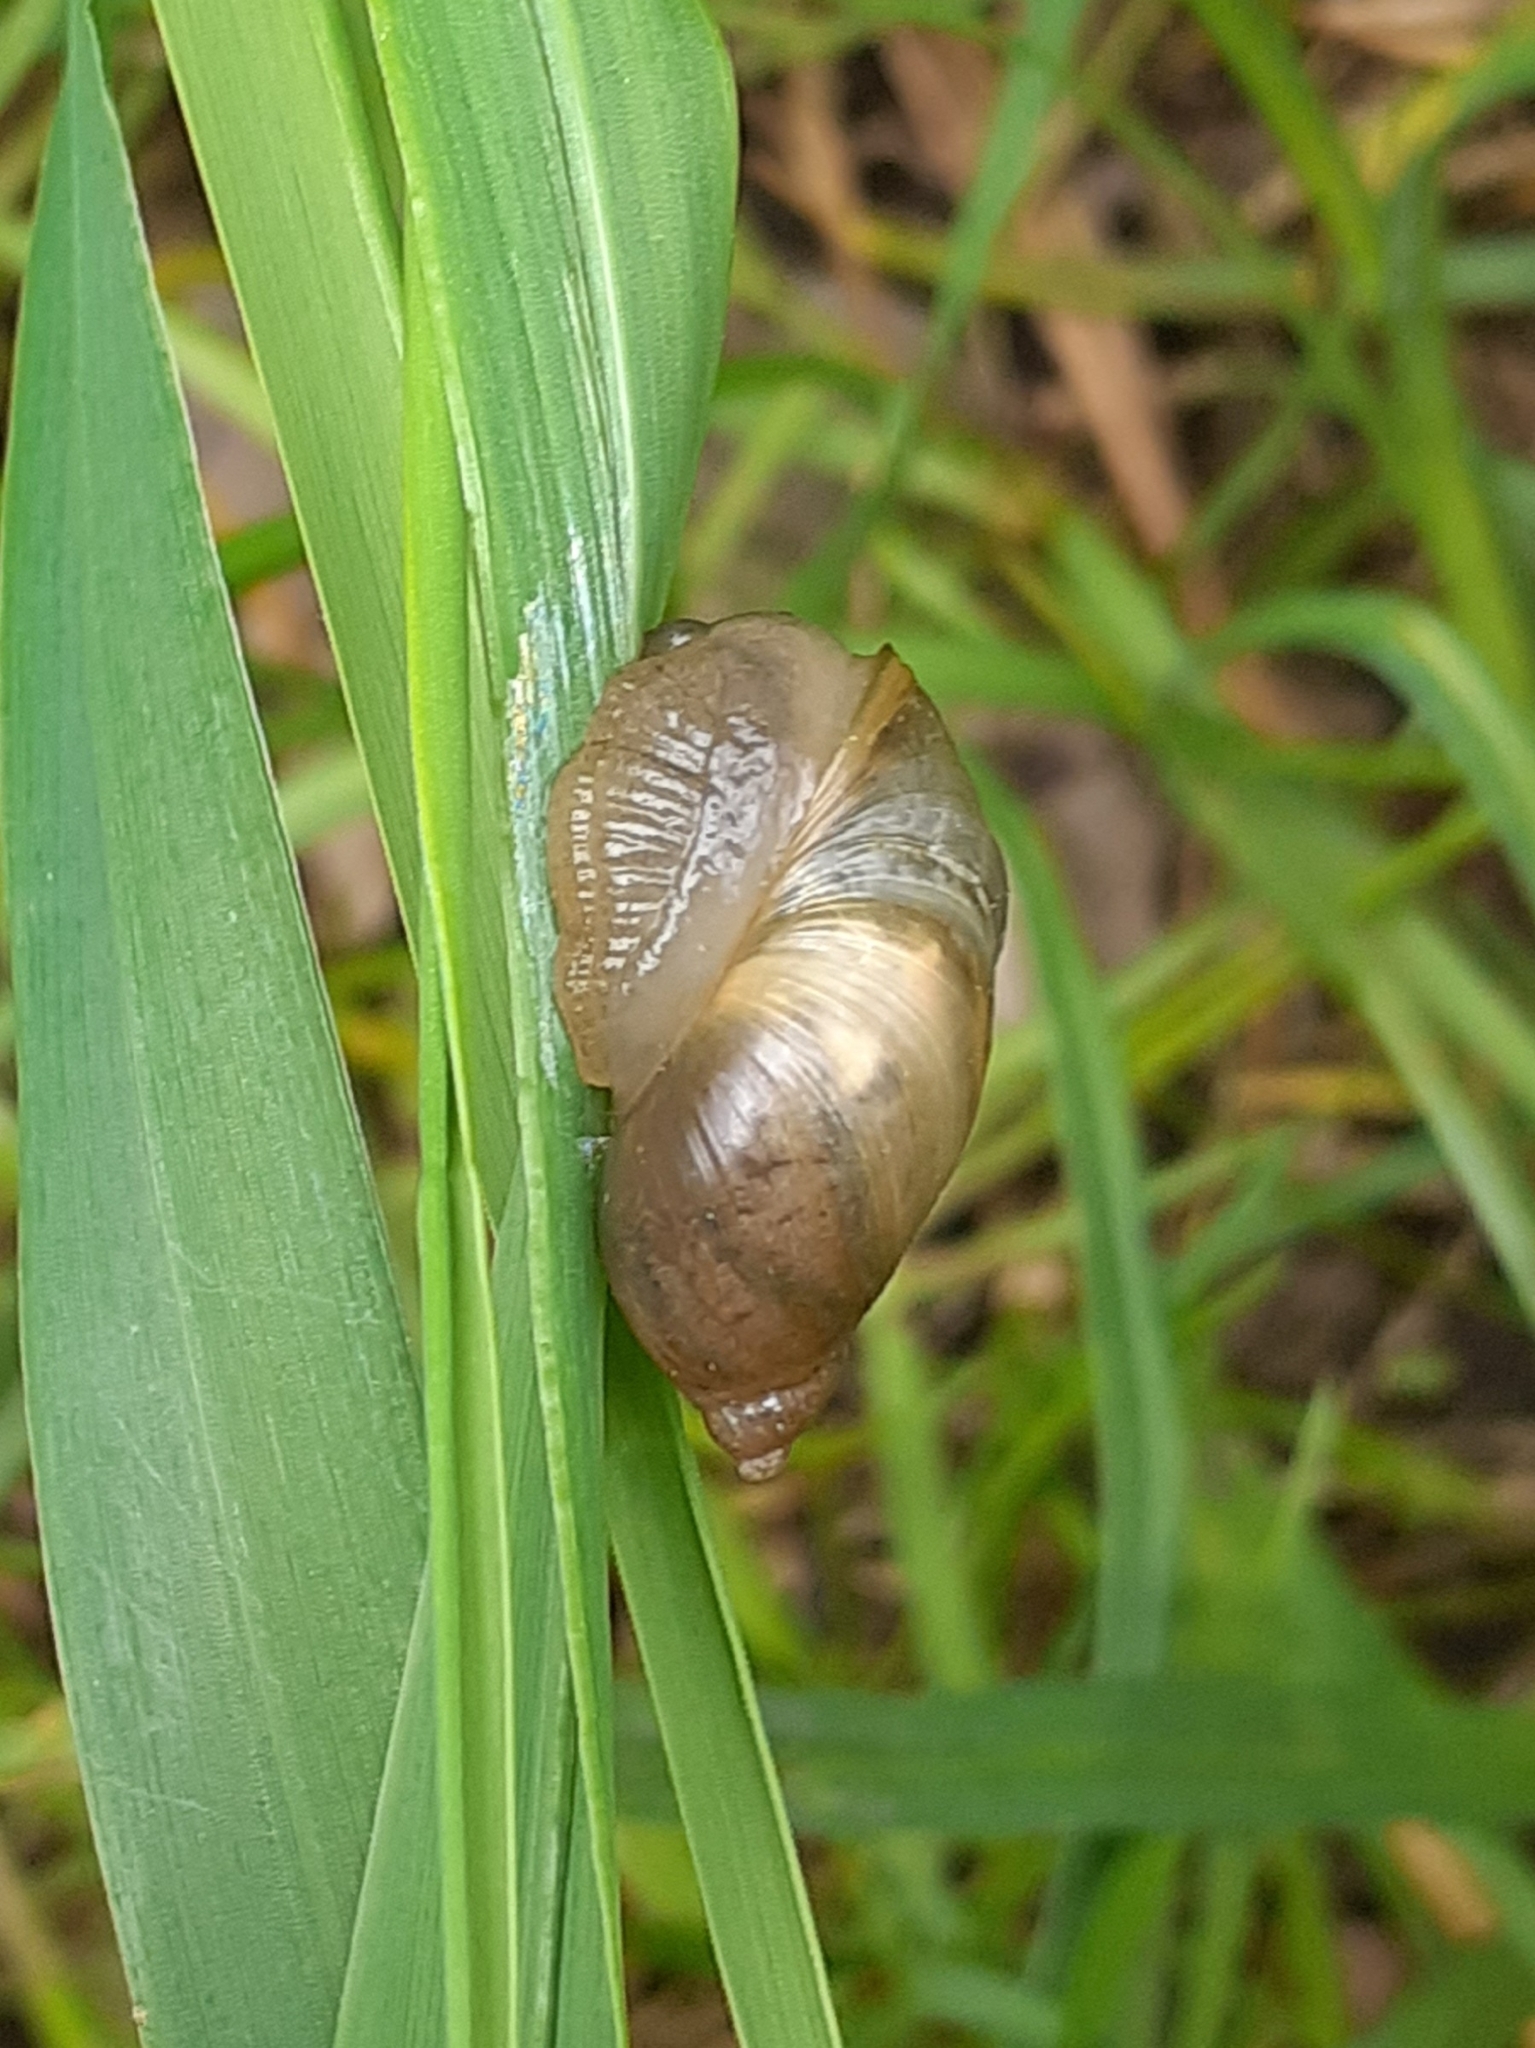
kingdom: Animalia
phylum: Mollusca
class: Gastropoda
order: Stylommatophora
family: Succineidae
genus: Succinea
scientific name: Succinea putris
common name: European ambersnail
